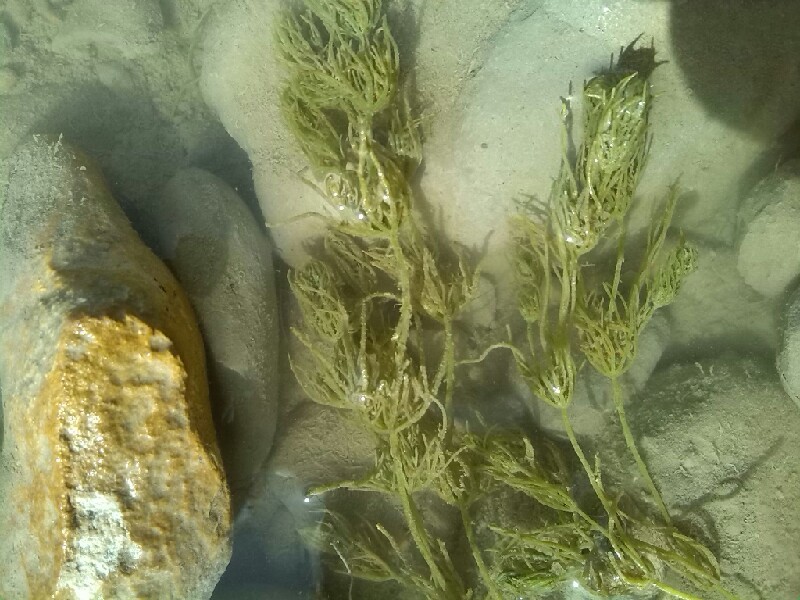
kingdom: Plantae
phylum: Charophyta
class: Charophyceae
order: Charales
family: Characeae
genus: Chara
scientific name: Chara vulgaris
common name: Common stonewort
